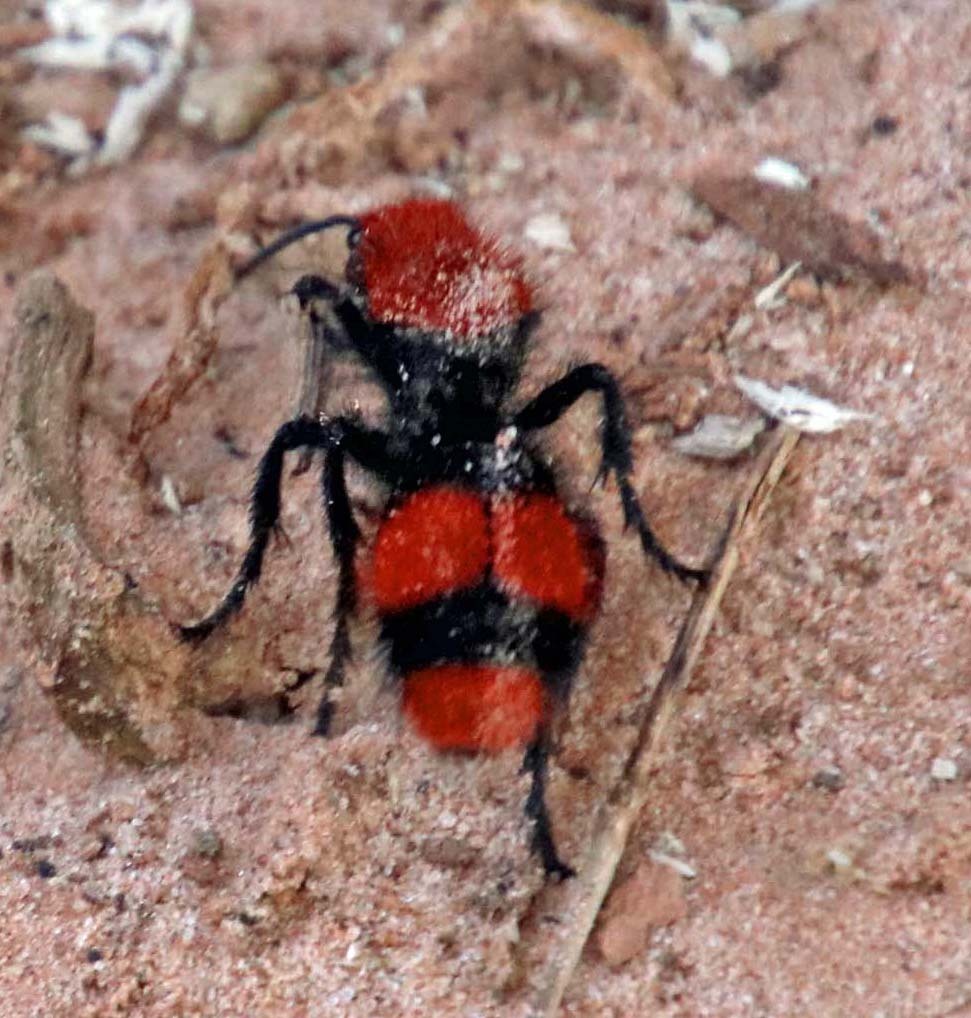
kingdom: Animalia
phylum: Arthropoda
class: Insecta
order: Hymenoptera
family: Mutillidae
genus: Dasymutilla
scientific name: Dasymutilla occidentalis
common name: Common eastern velvet ant
